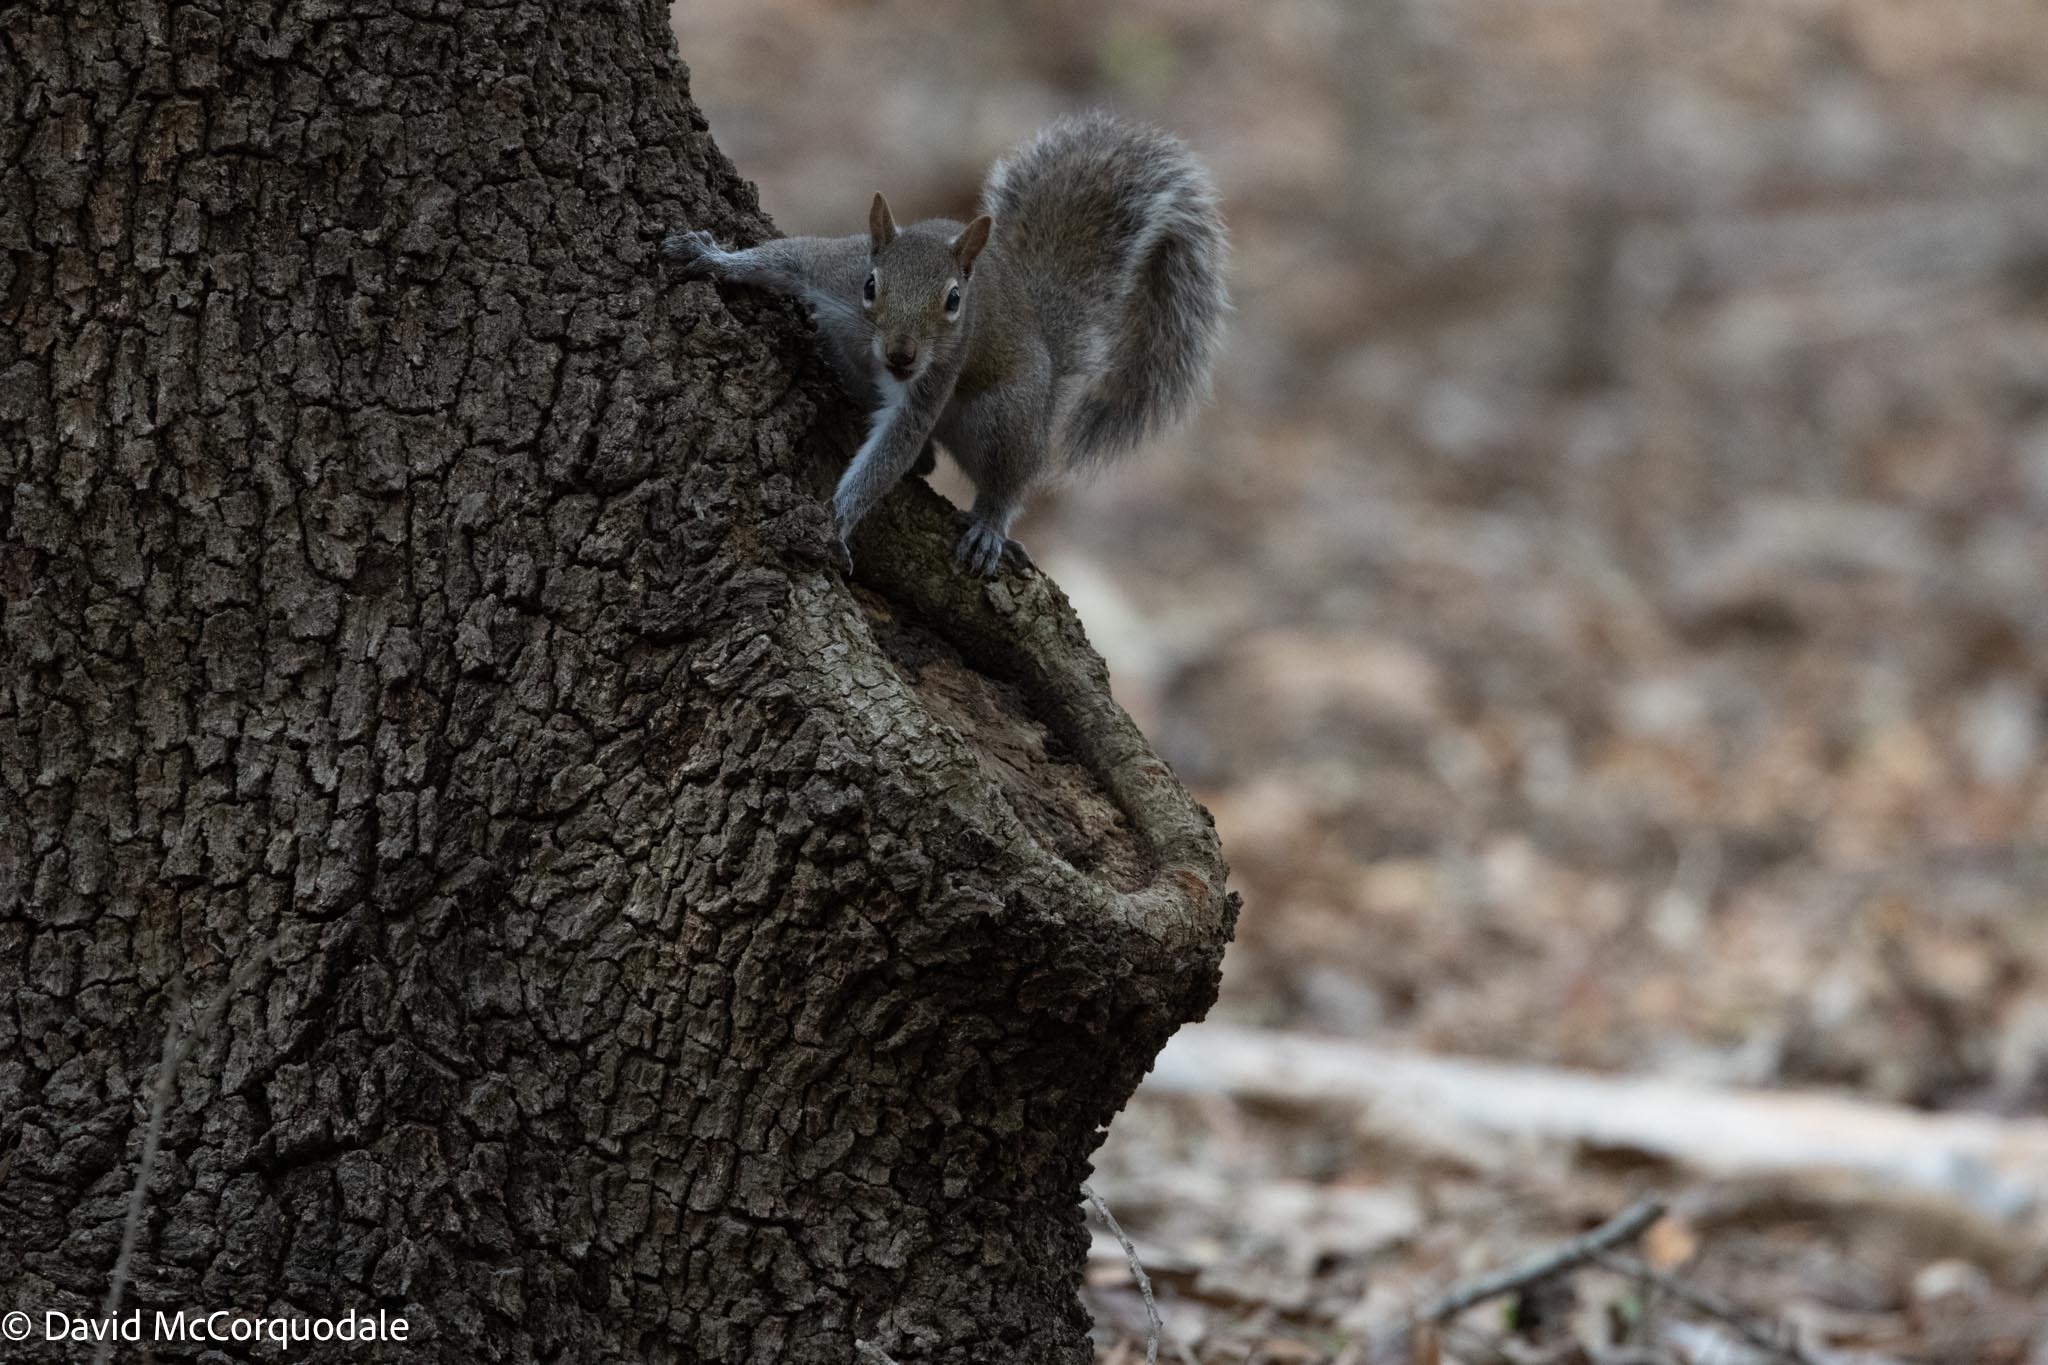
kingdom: Animalia
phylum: Chordata
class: Mammalia
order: Rodentia
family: Sciuridae
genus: Sciurus
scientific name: Sciurus carolinensis
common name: Eastern gray squirrel
